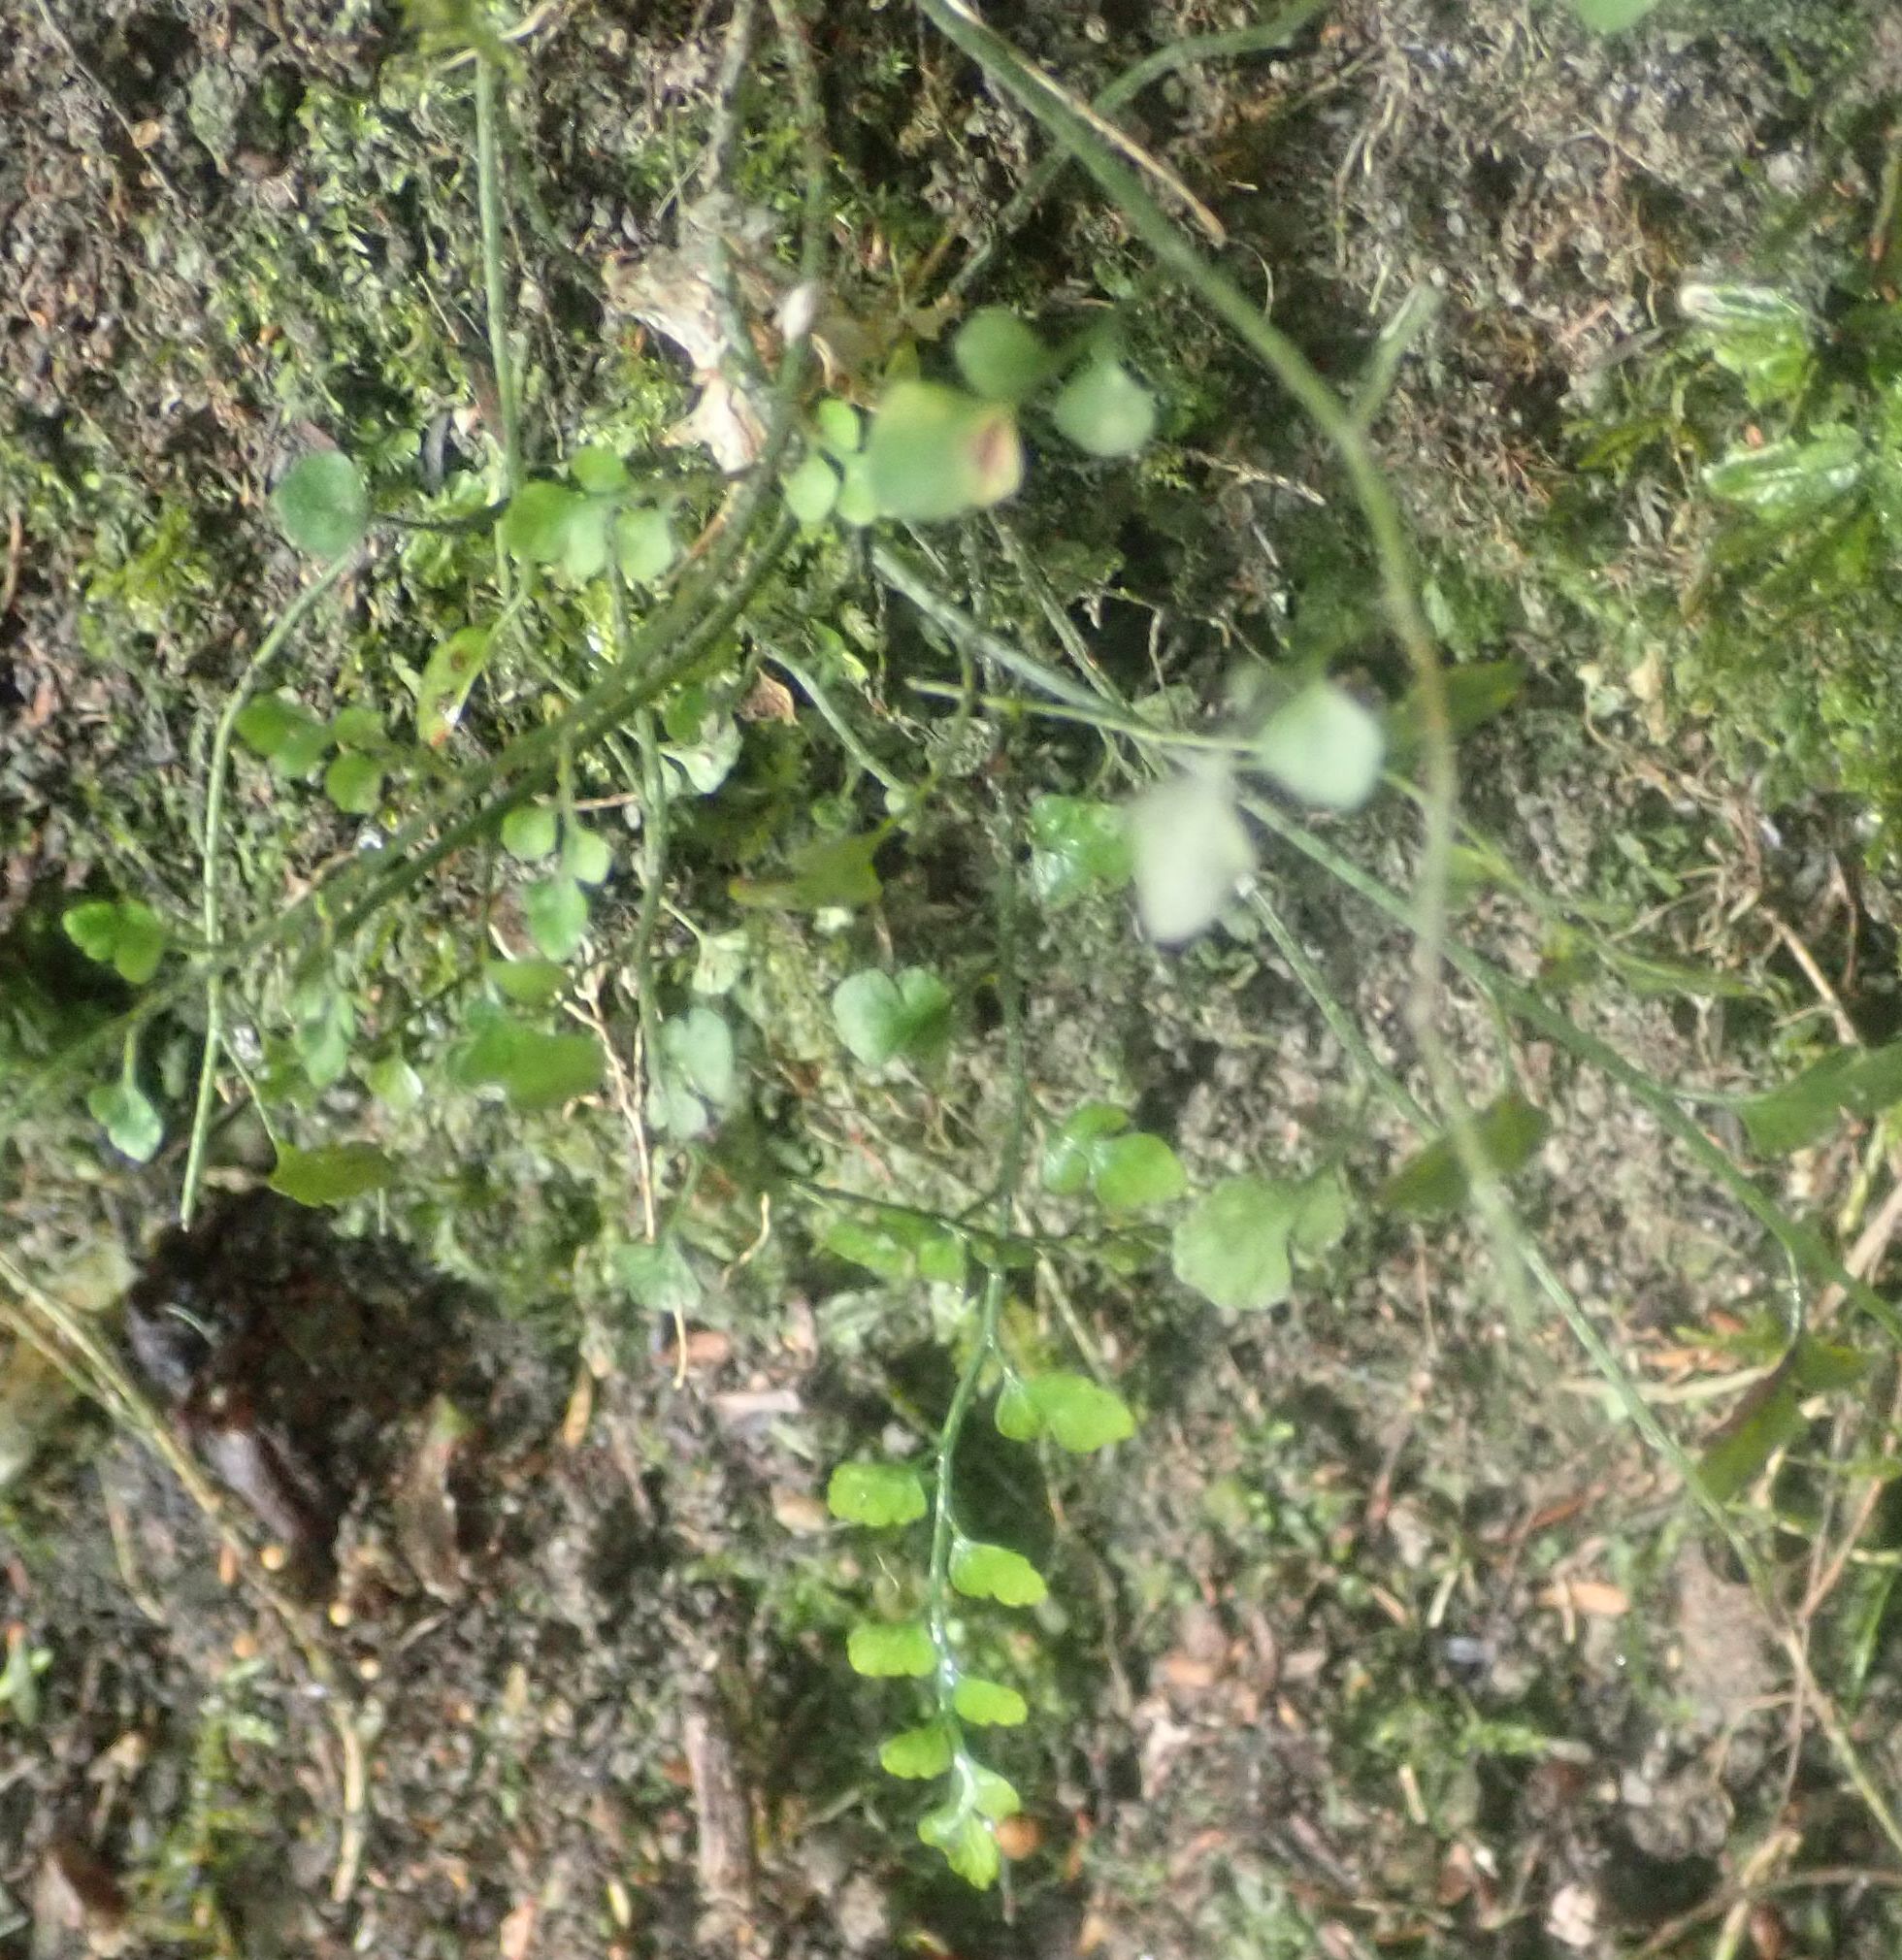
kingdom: Plantae
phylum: Tracheophyta
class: Polypodiopsida
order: Polypodiales
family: Aspleniaceae
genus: Asplenium
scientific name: Asplenium hookerianum
